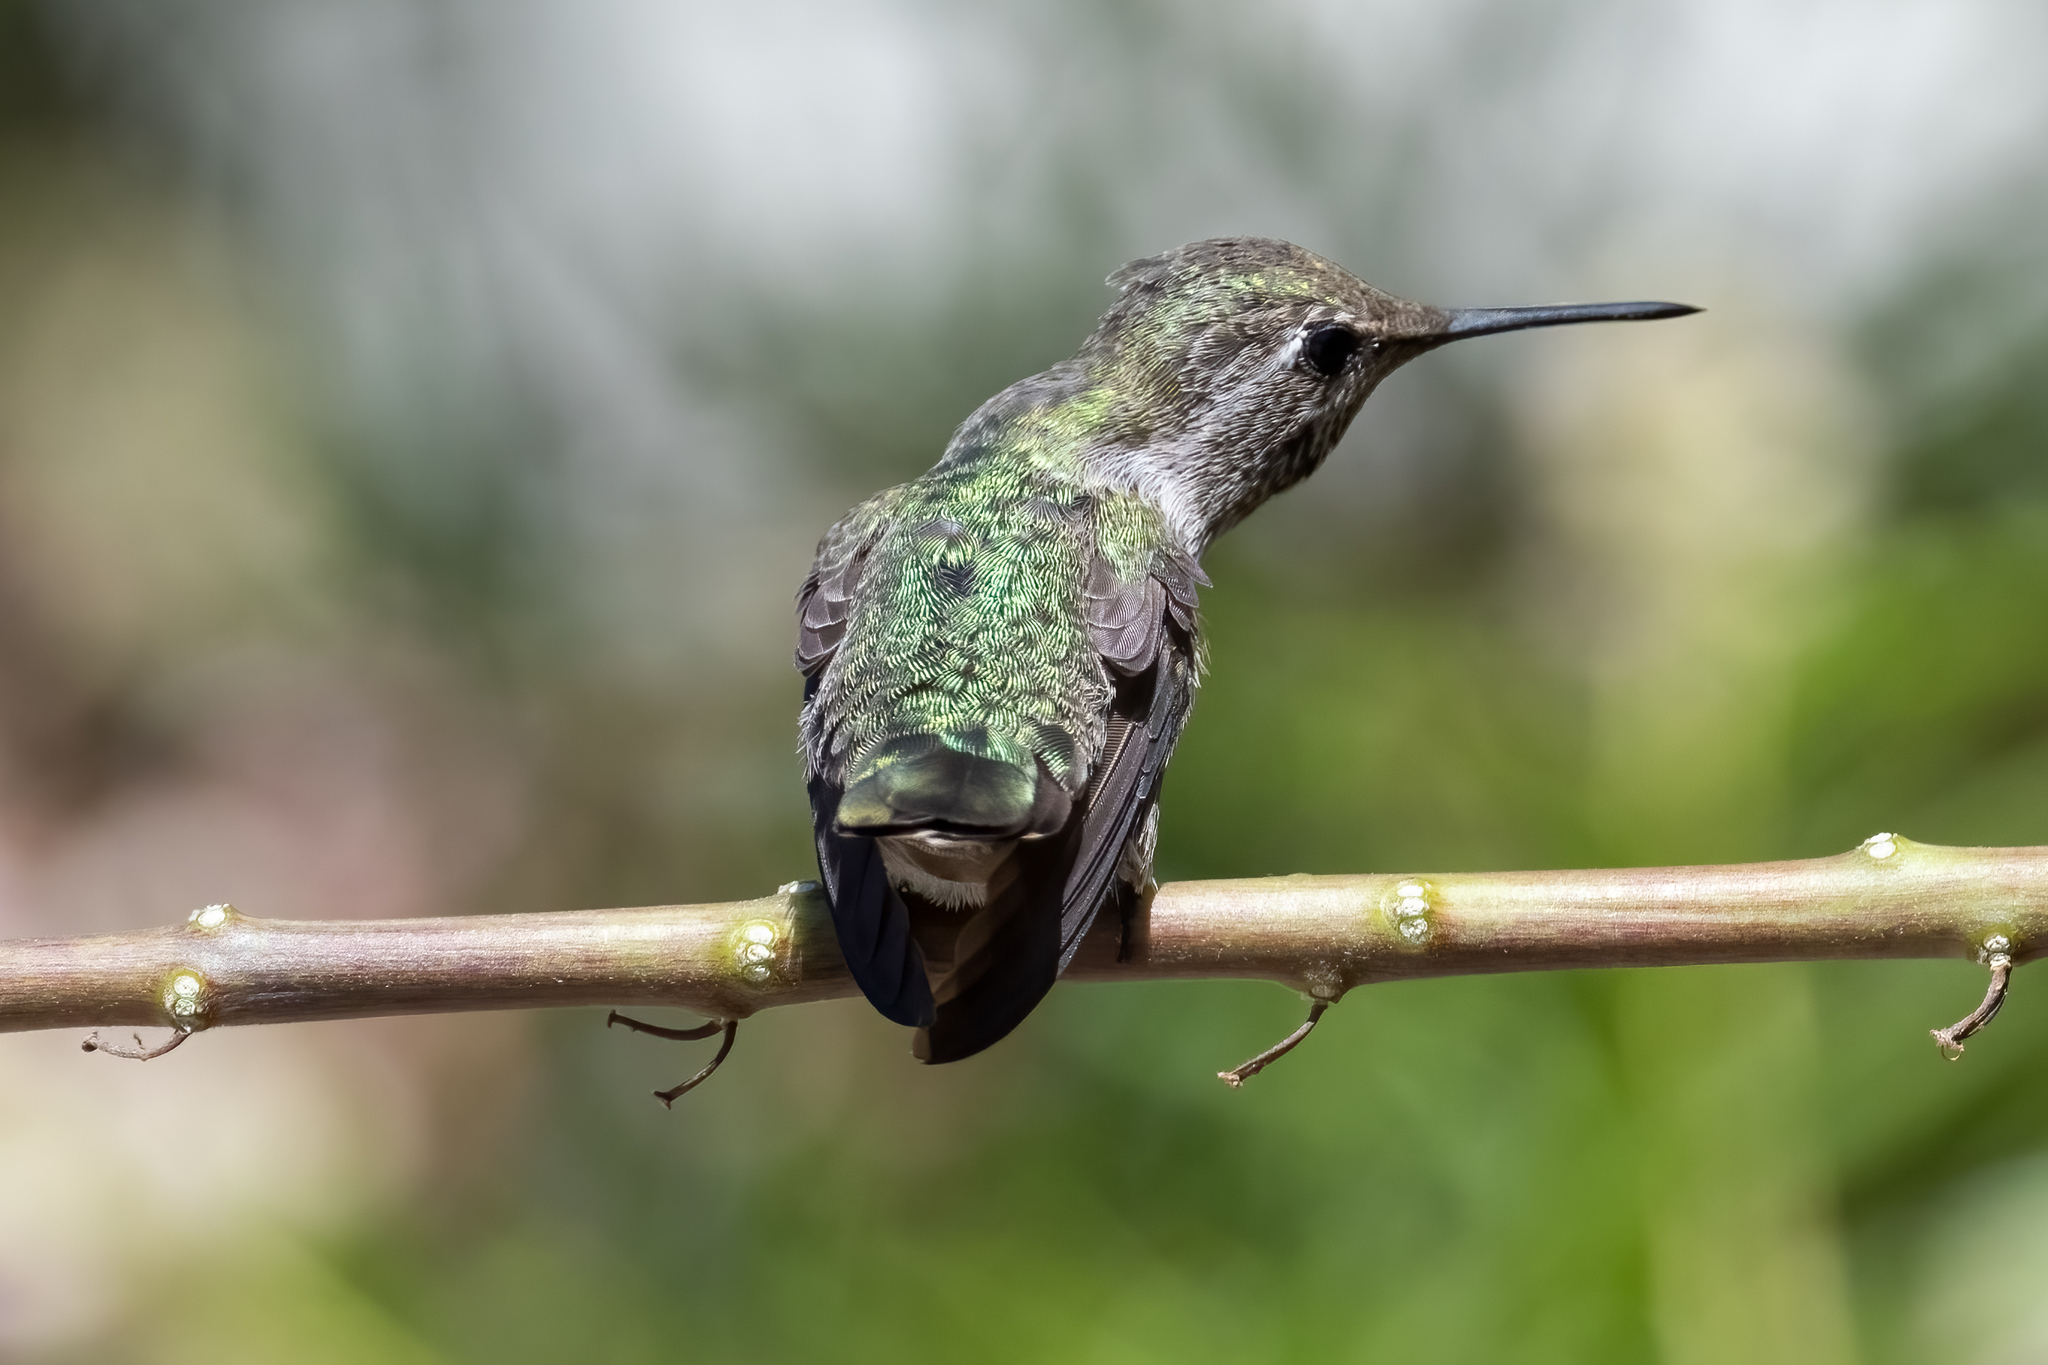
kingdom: Animalia
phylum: Chordata
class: Aves
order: Apodiformes
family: Trochilidae
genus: Calypte
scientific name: Calypte anna
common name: Anna's hummingbird
